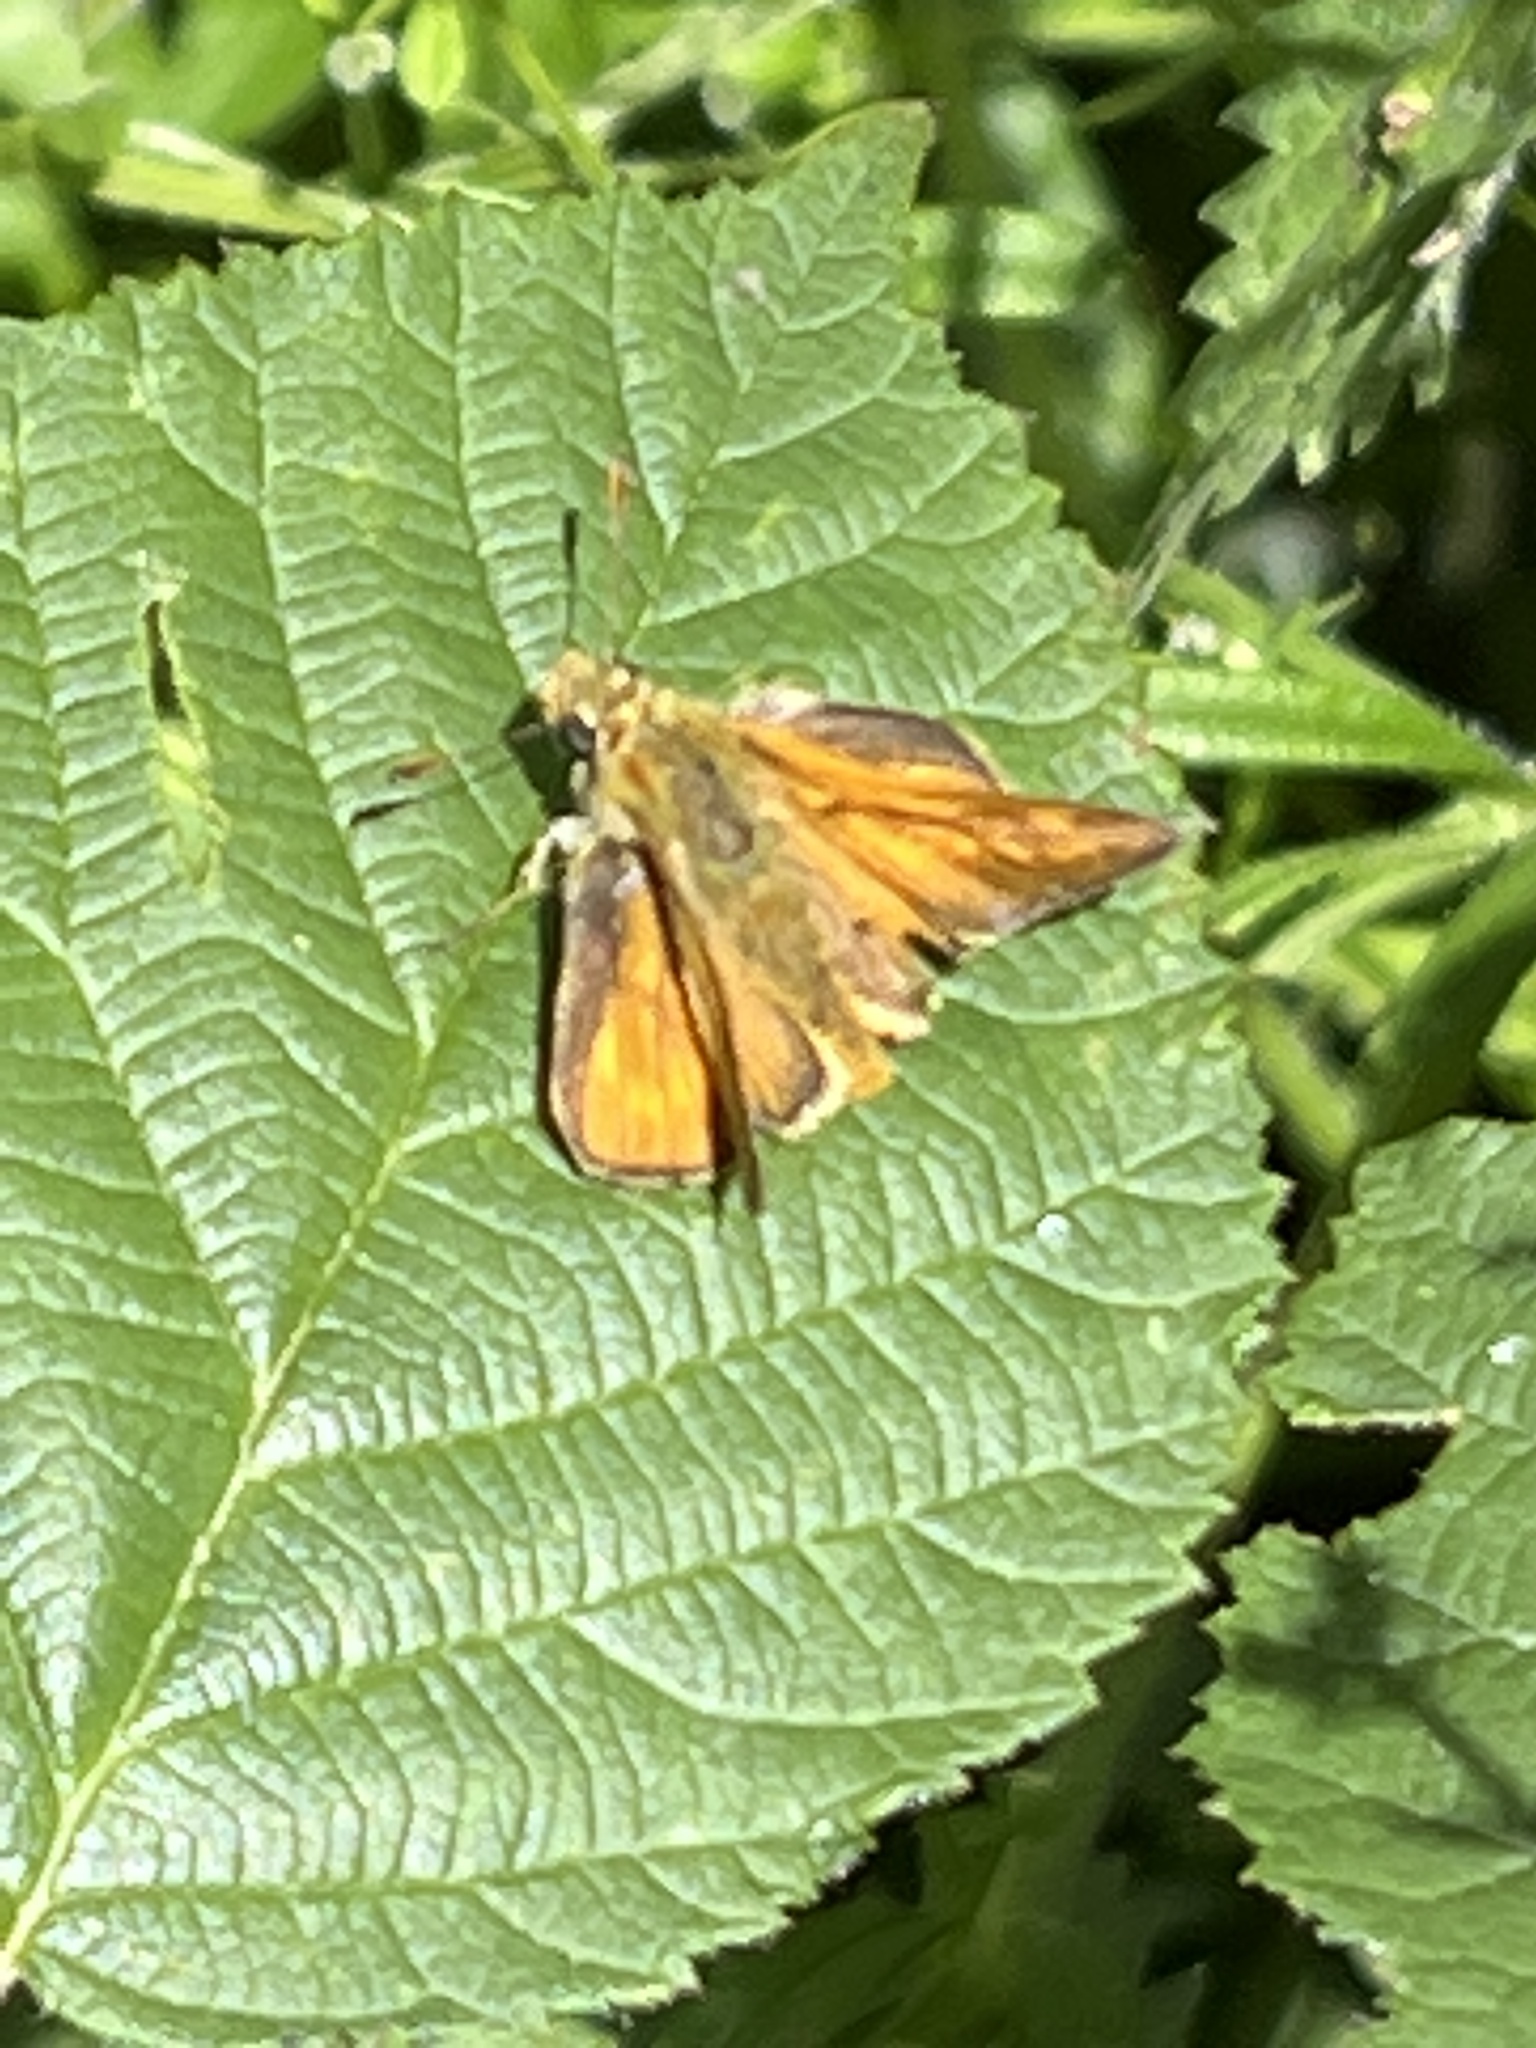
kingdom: Animalia
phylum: Arthropoda
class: Insecta
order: Lepidoptera
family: Hesperiidae
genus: Ochlodes
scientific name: Ochlodes venata
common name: Large skipper
